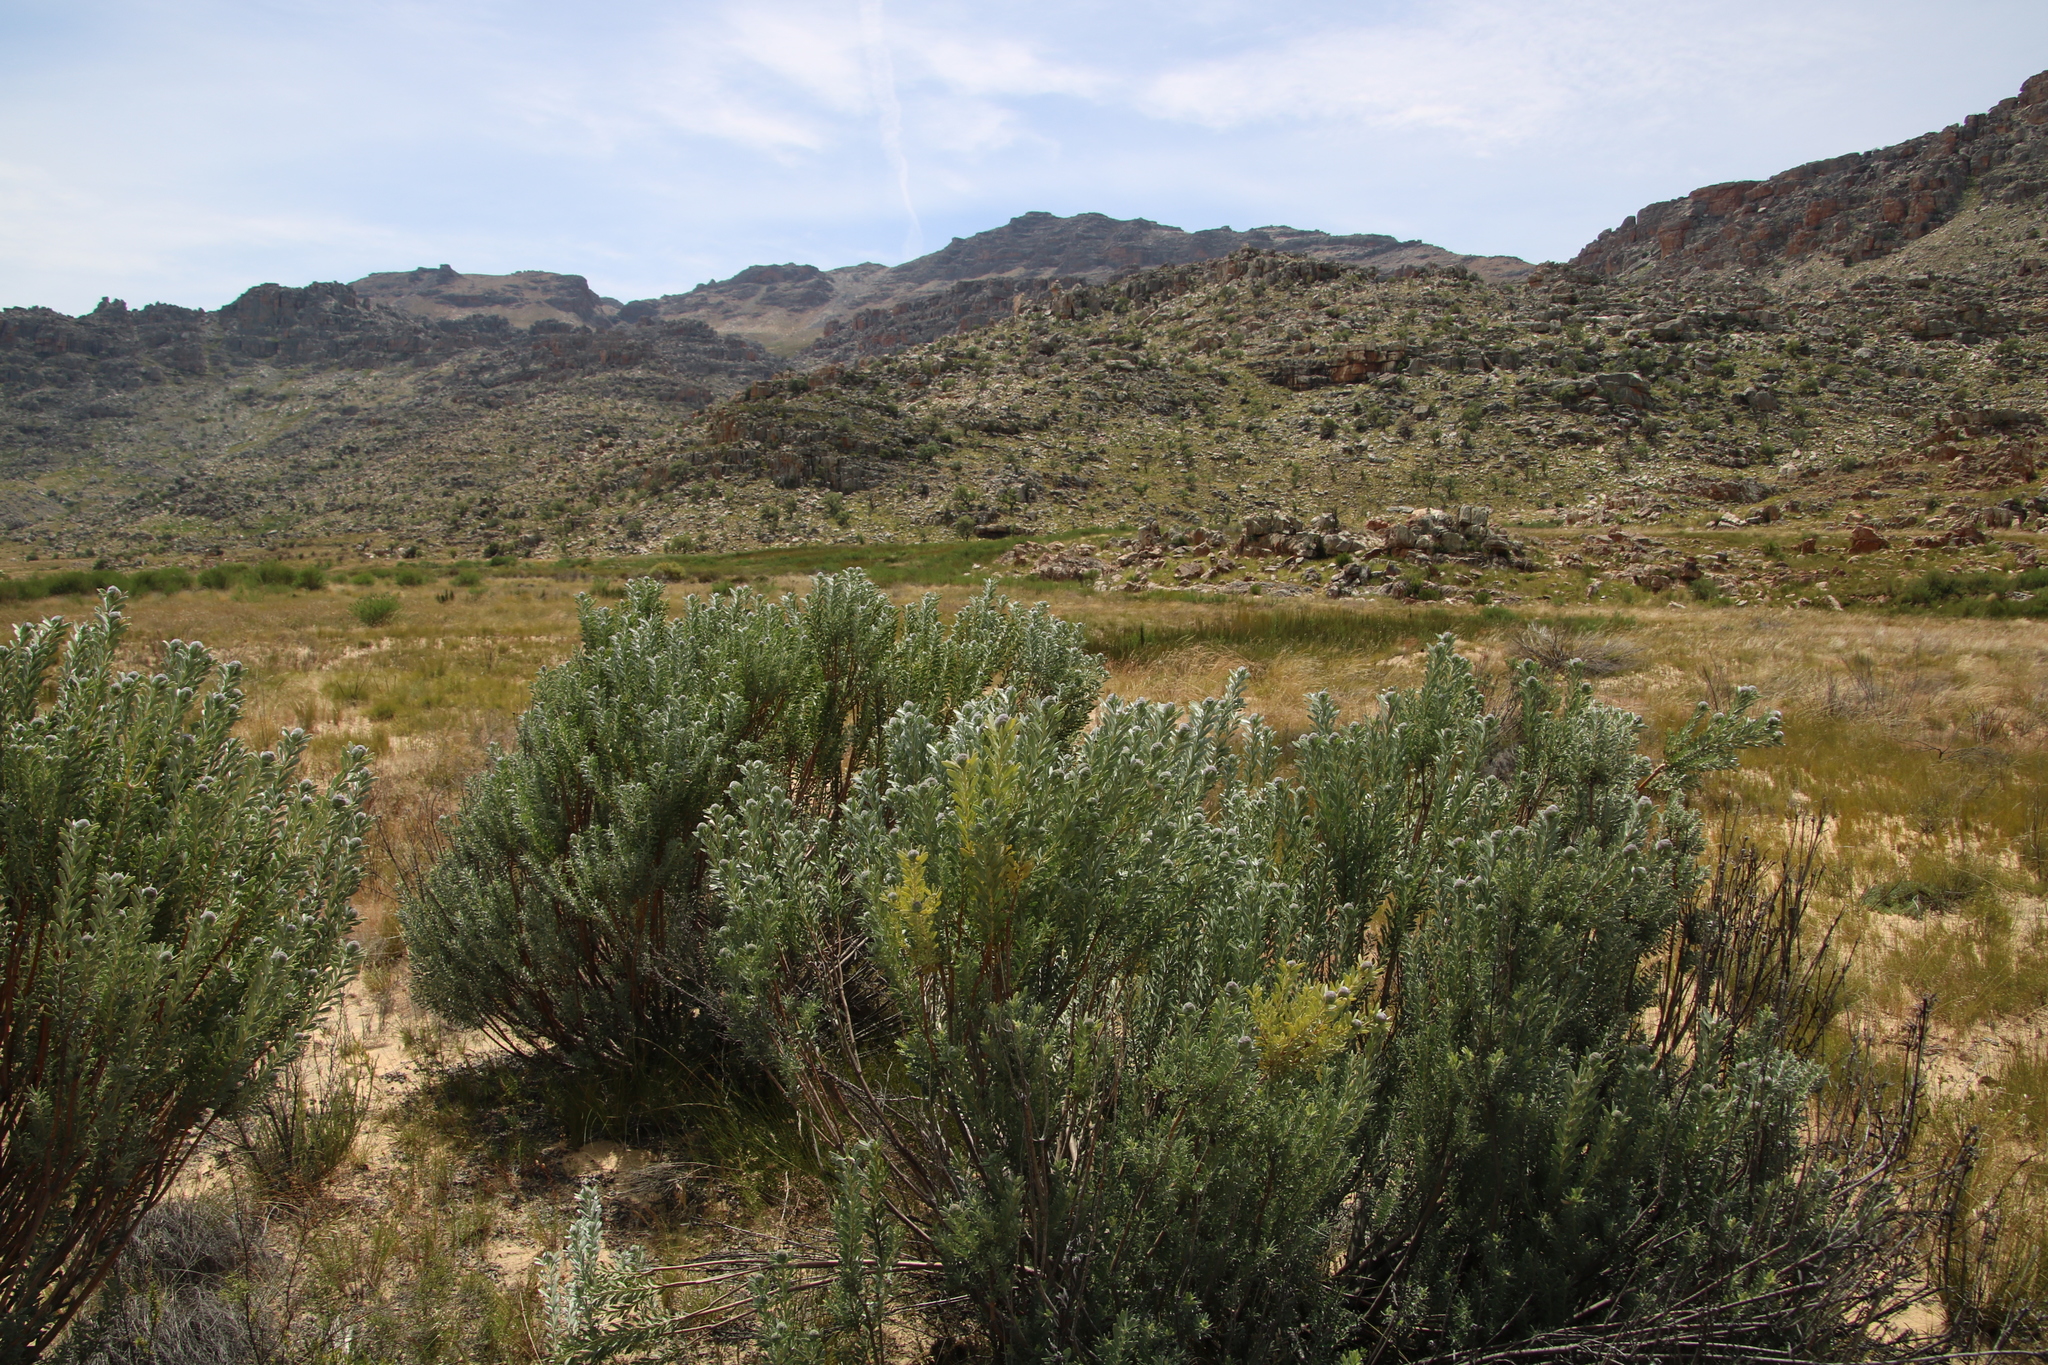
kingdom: Plantae
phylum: Tracheophyta
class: Magnoliopsida
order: Proteales
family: Proteaceae
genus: Leucadendron
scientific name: Leucadendron pubescens
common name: Grey conebush
